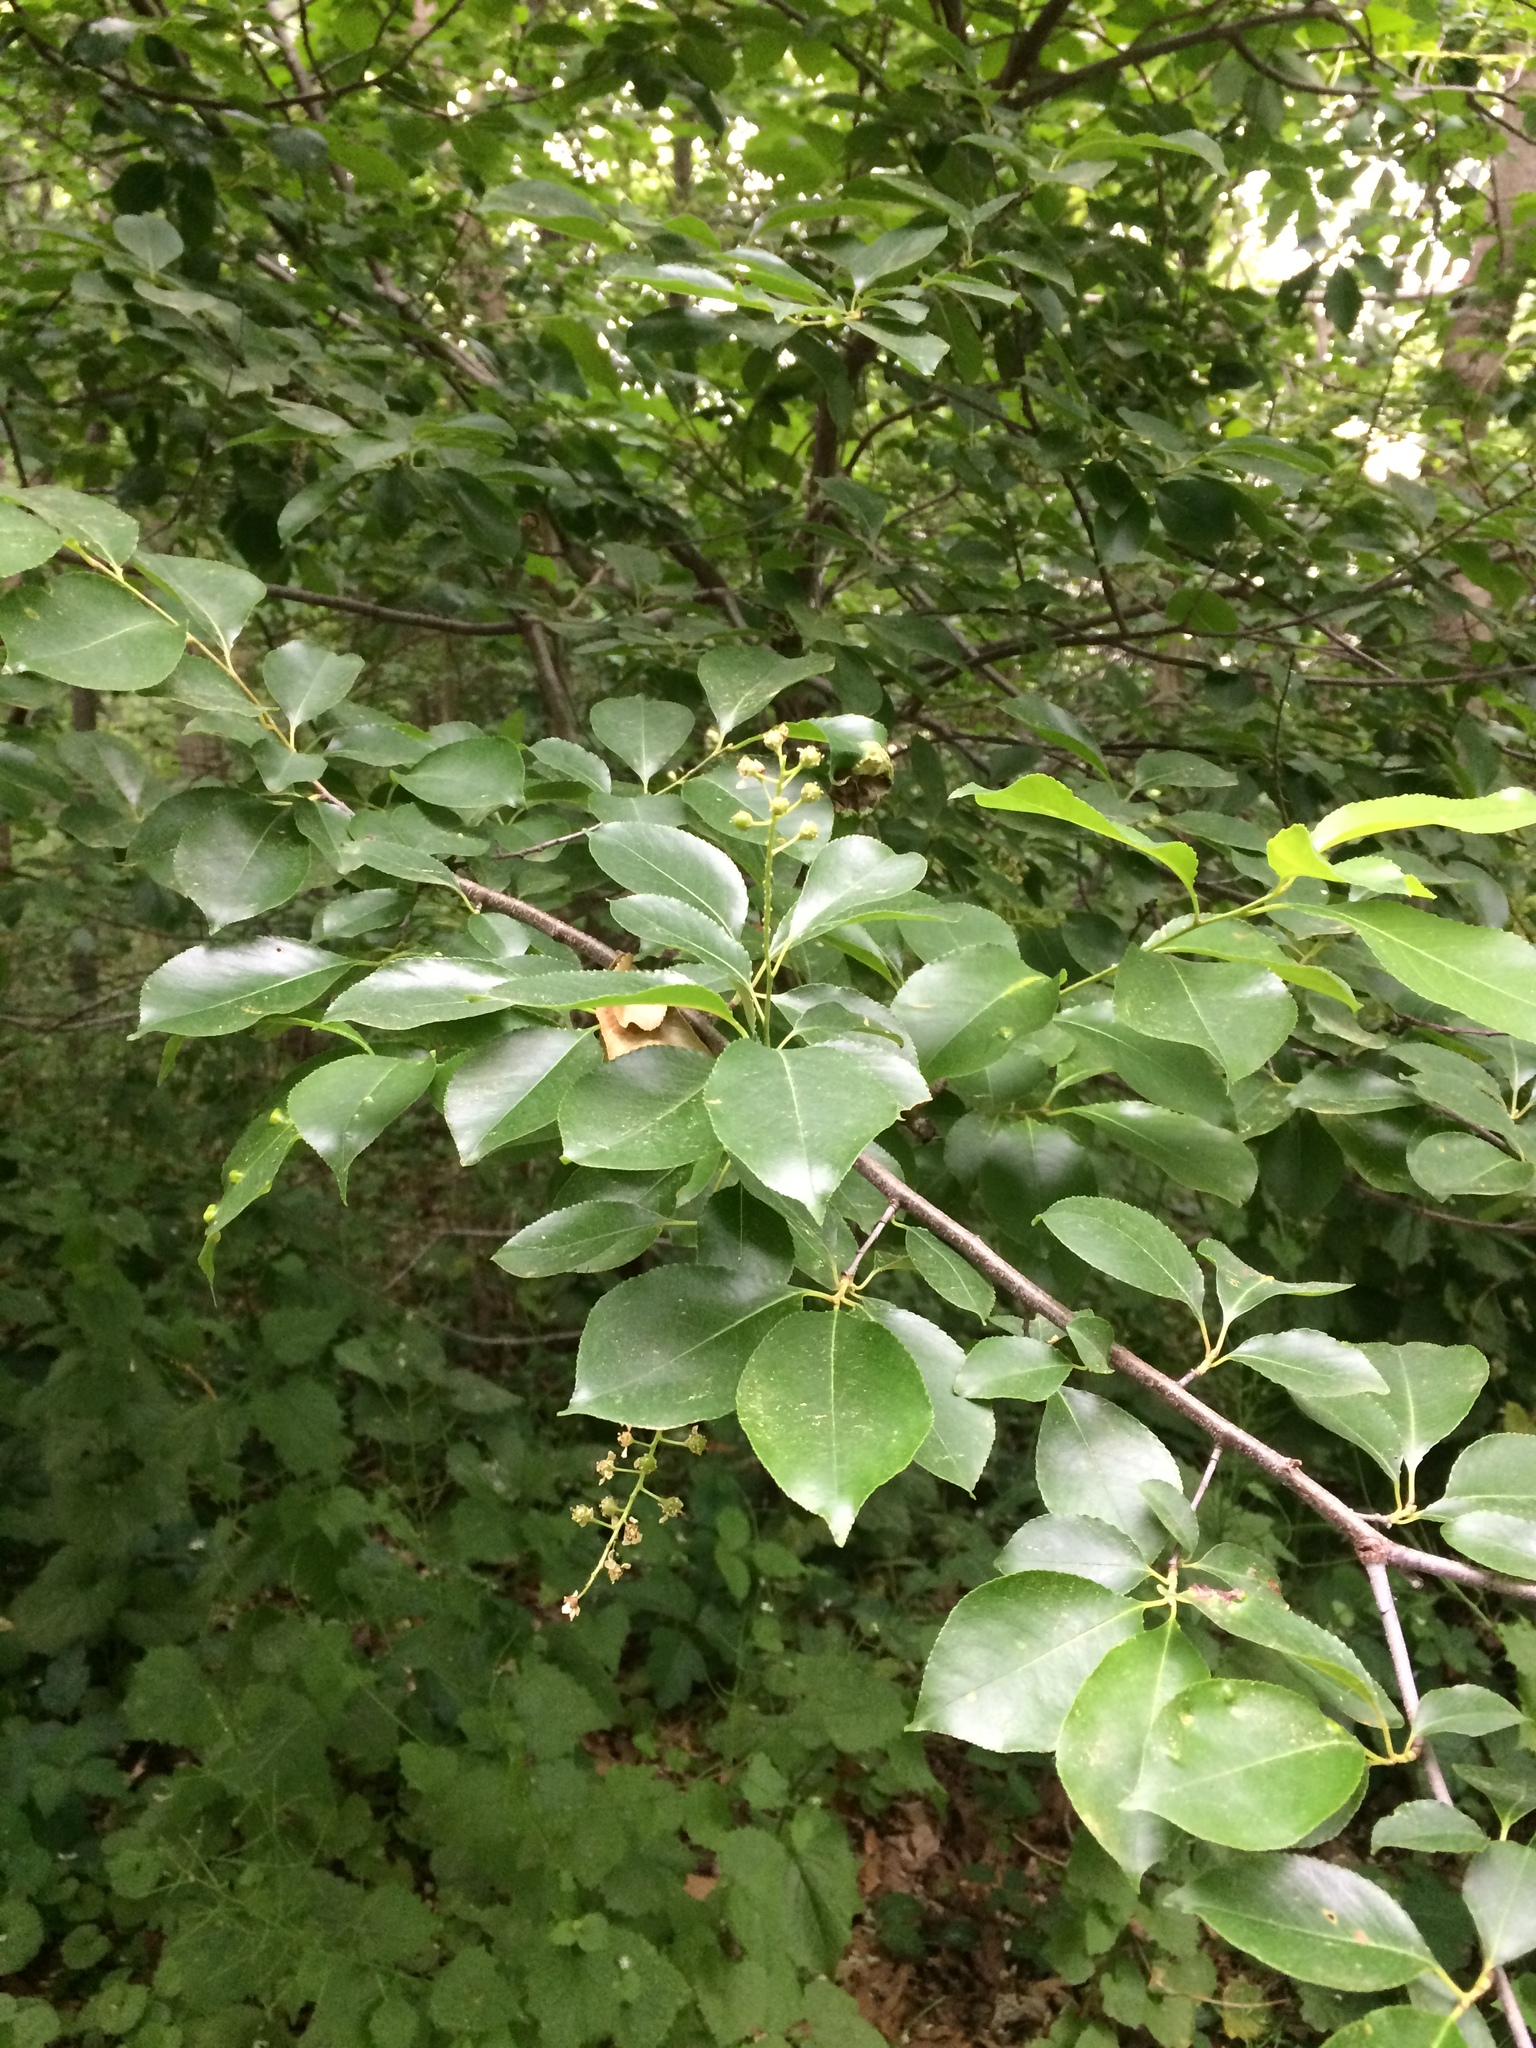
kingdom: Plantae
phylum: Tracheophyta
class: Magnoliopsida
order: Rosales
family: Rosaceae
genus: Prunus
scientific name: Prunus serotina
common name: Black cherry
